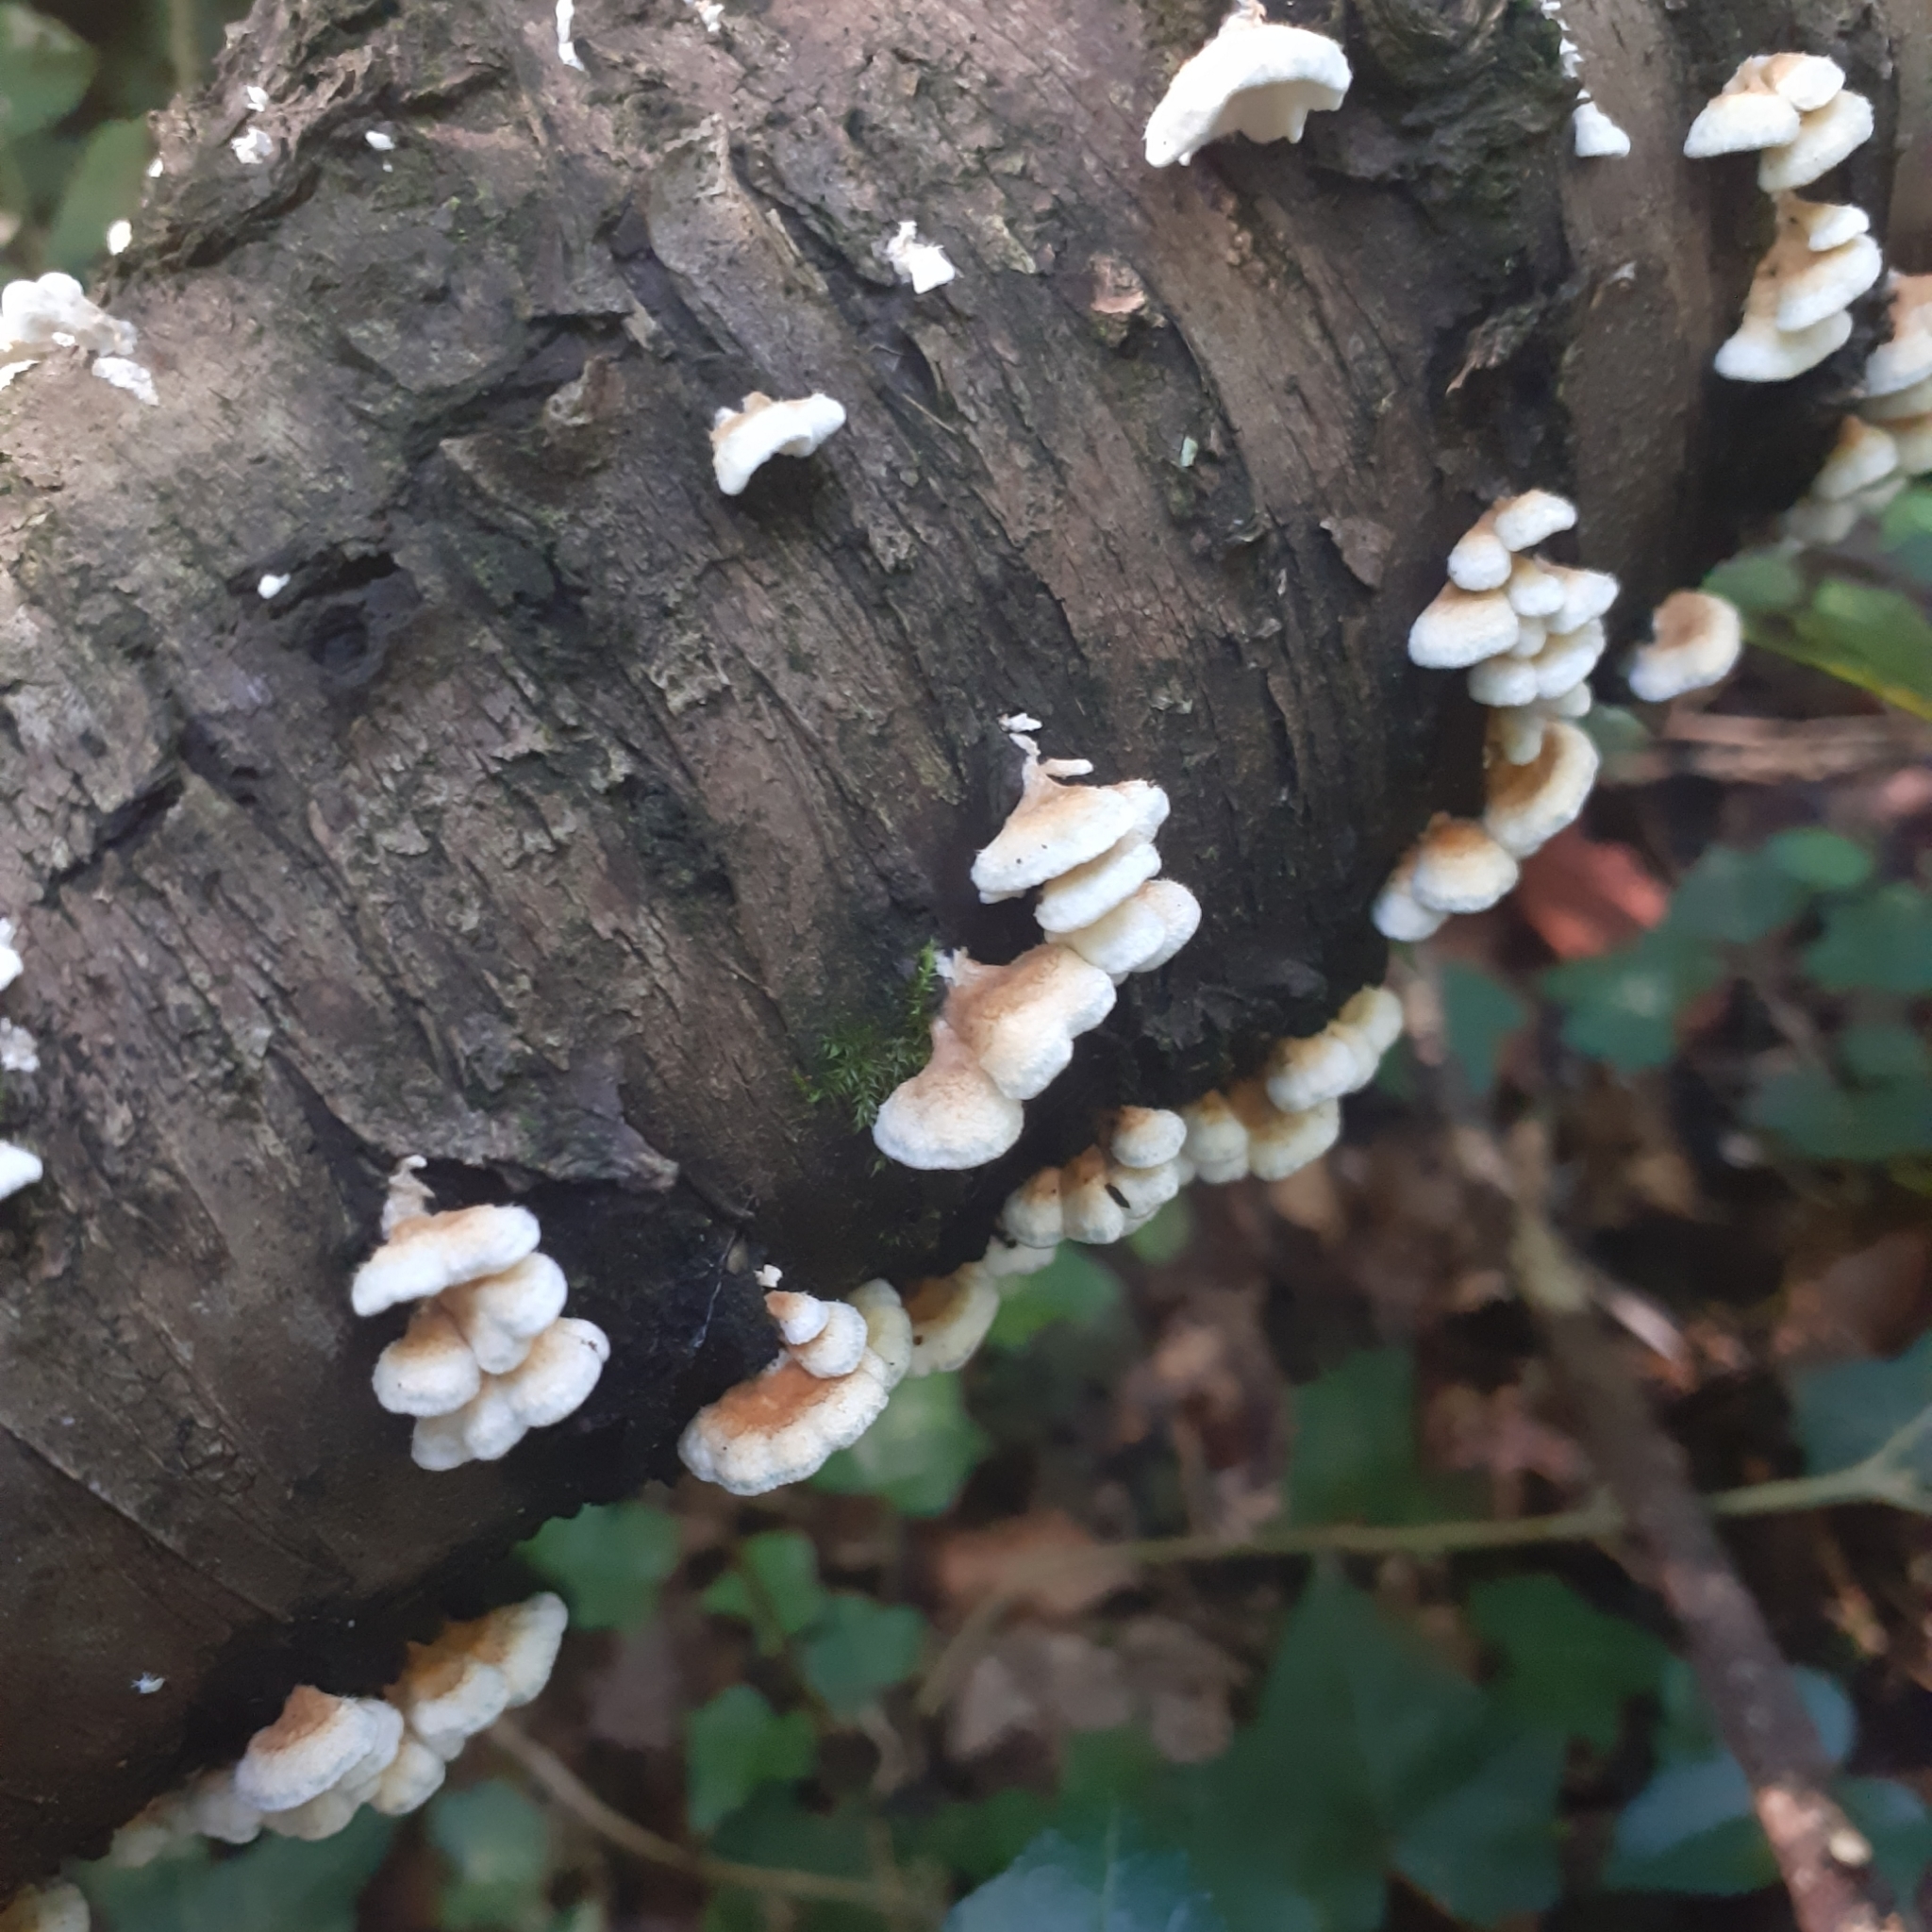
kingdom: Fungi
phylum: Basidiomycota
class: Agaricomycetes
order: Amylocorticiales
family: Amylocorticiaceae
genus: Plicaturopsis
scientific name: Plicaturopsis crispa
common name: Crimped gill
